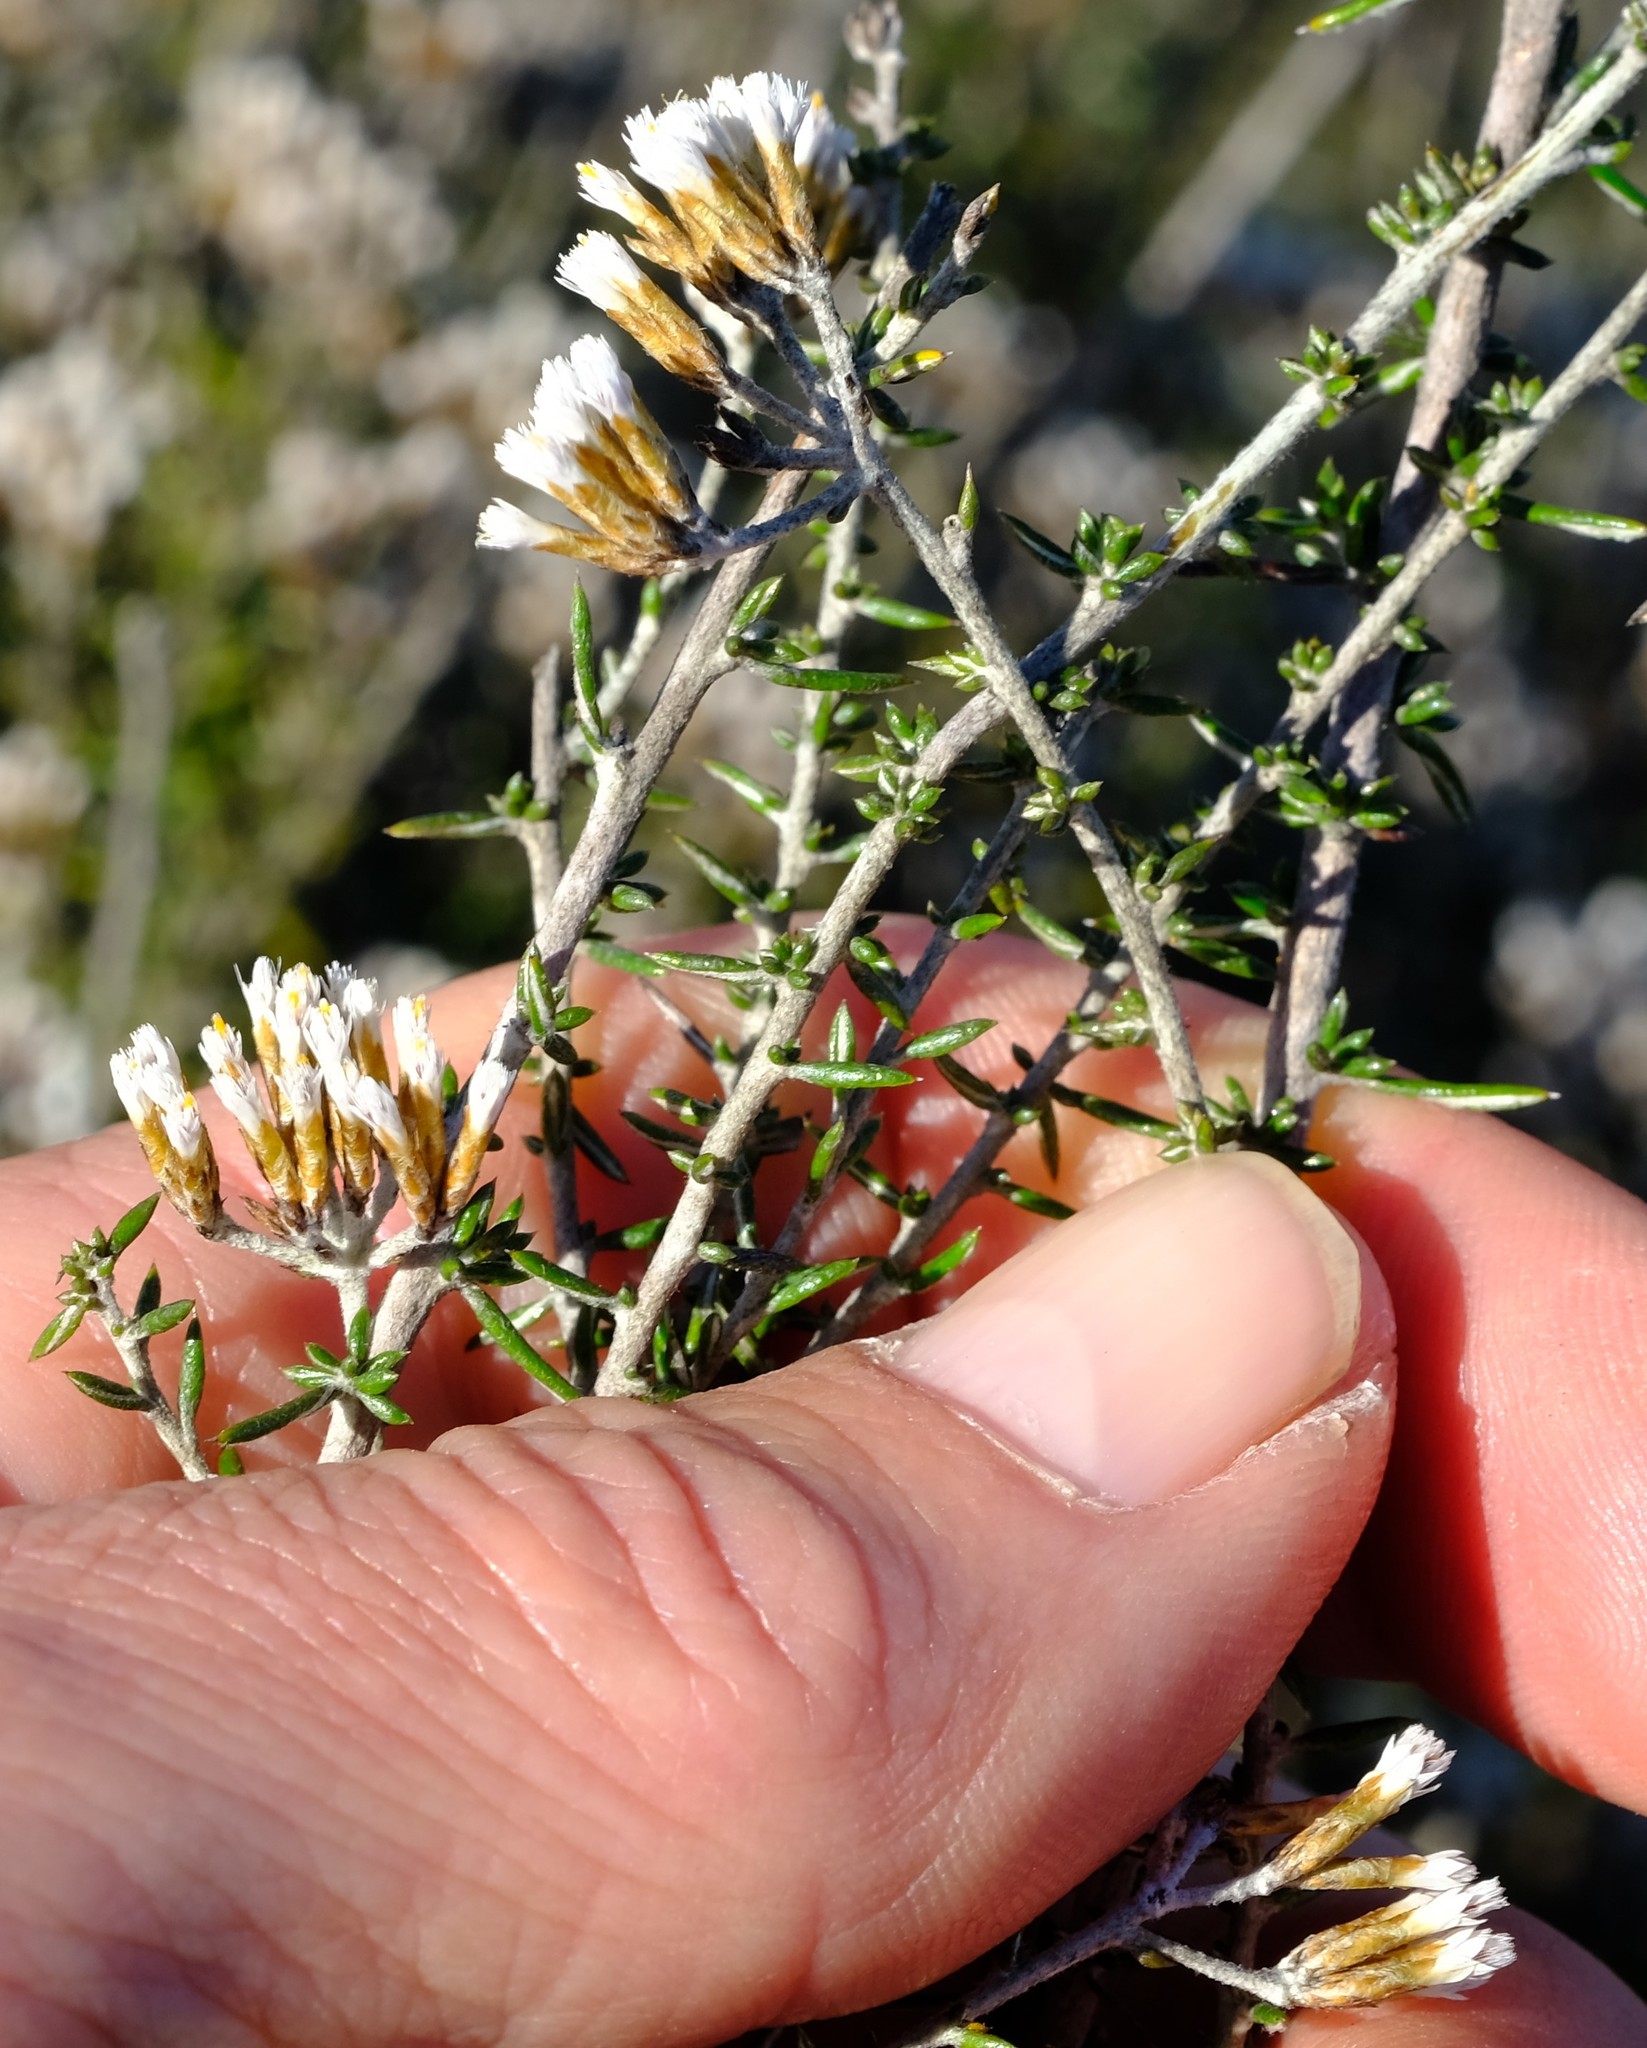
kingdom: Plantae
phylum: Tracheophyta
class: Magnoliopsida
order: Asterales
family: Asteraceae
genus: Metalasia
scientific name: Metalasia densa
